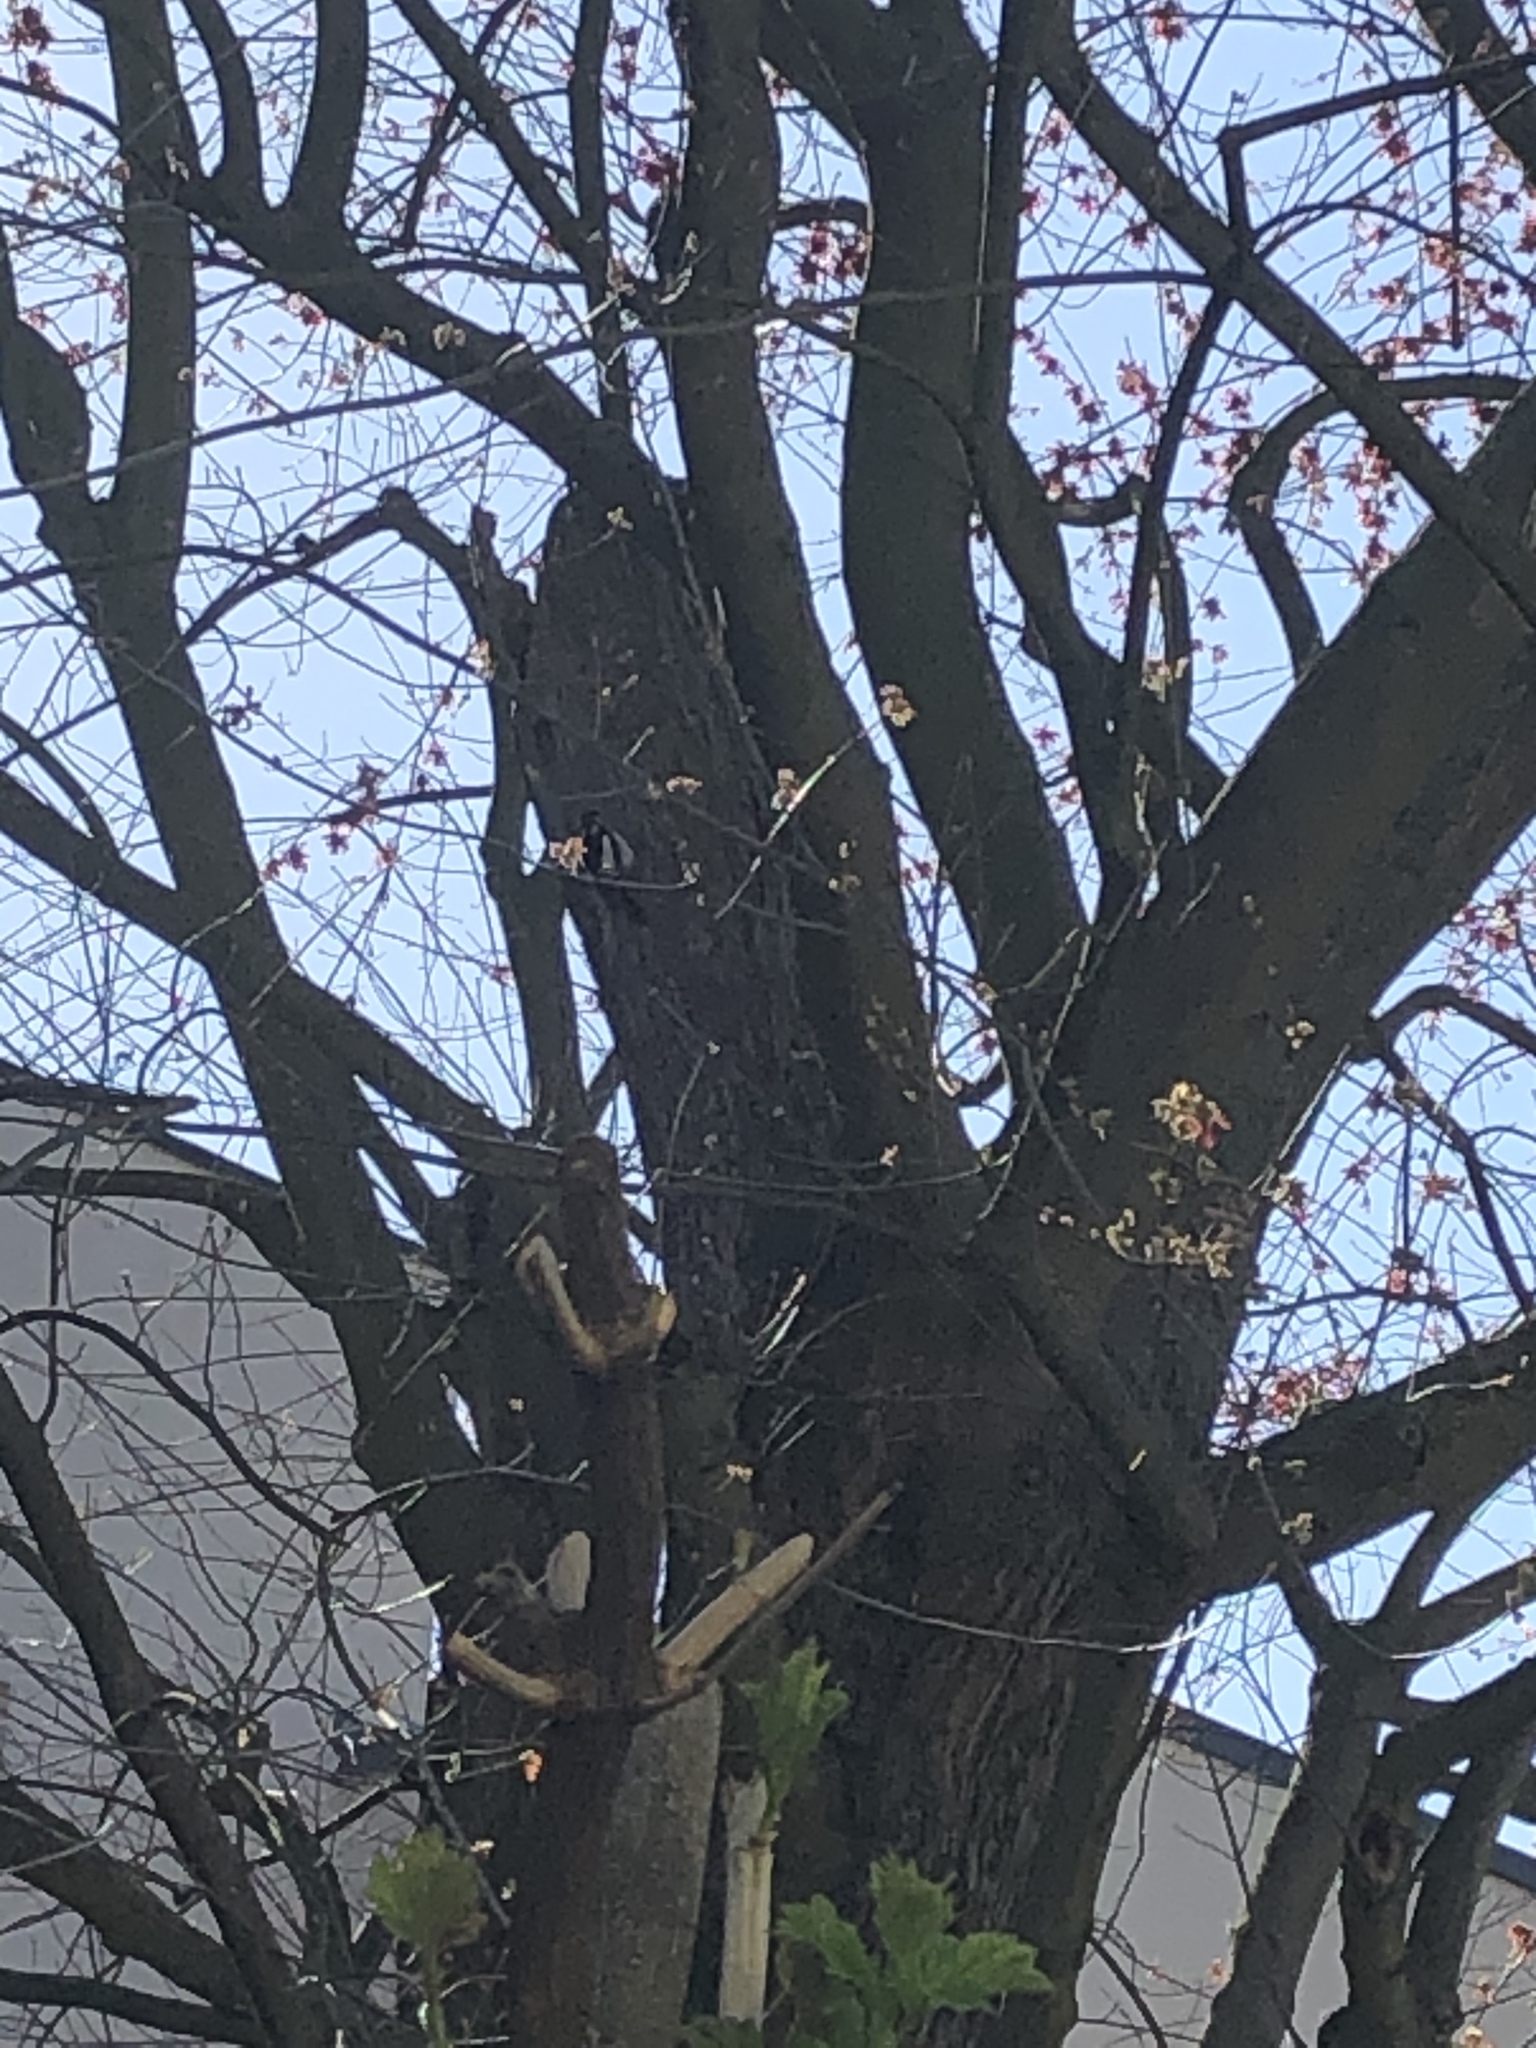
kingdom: Animalia
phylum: Chordata
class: Aves
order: Piciformes
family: Picidae
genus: Dendrocopos
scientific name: Dendrocopos major
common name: Great spotted woodpecker
